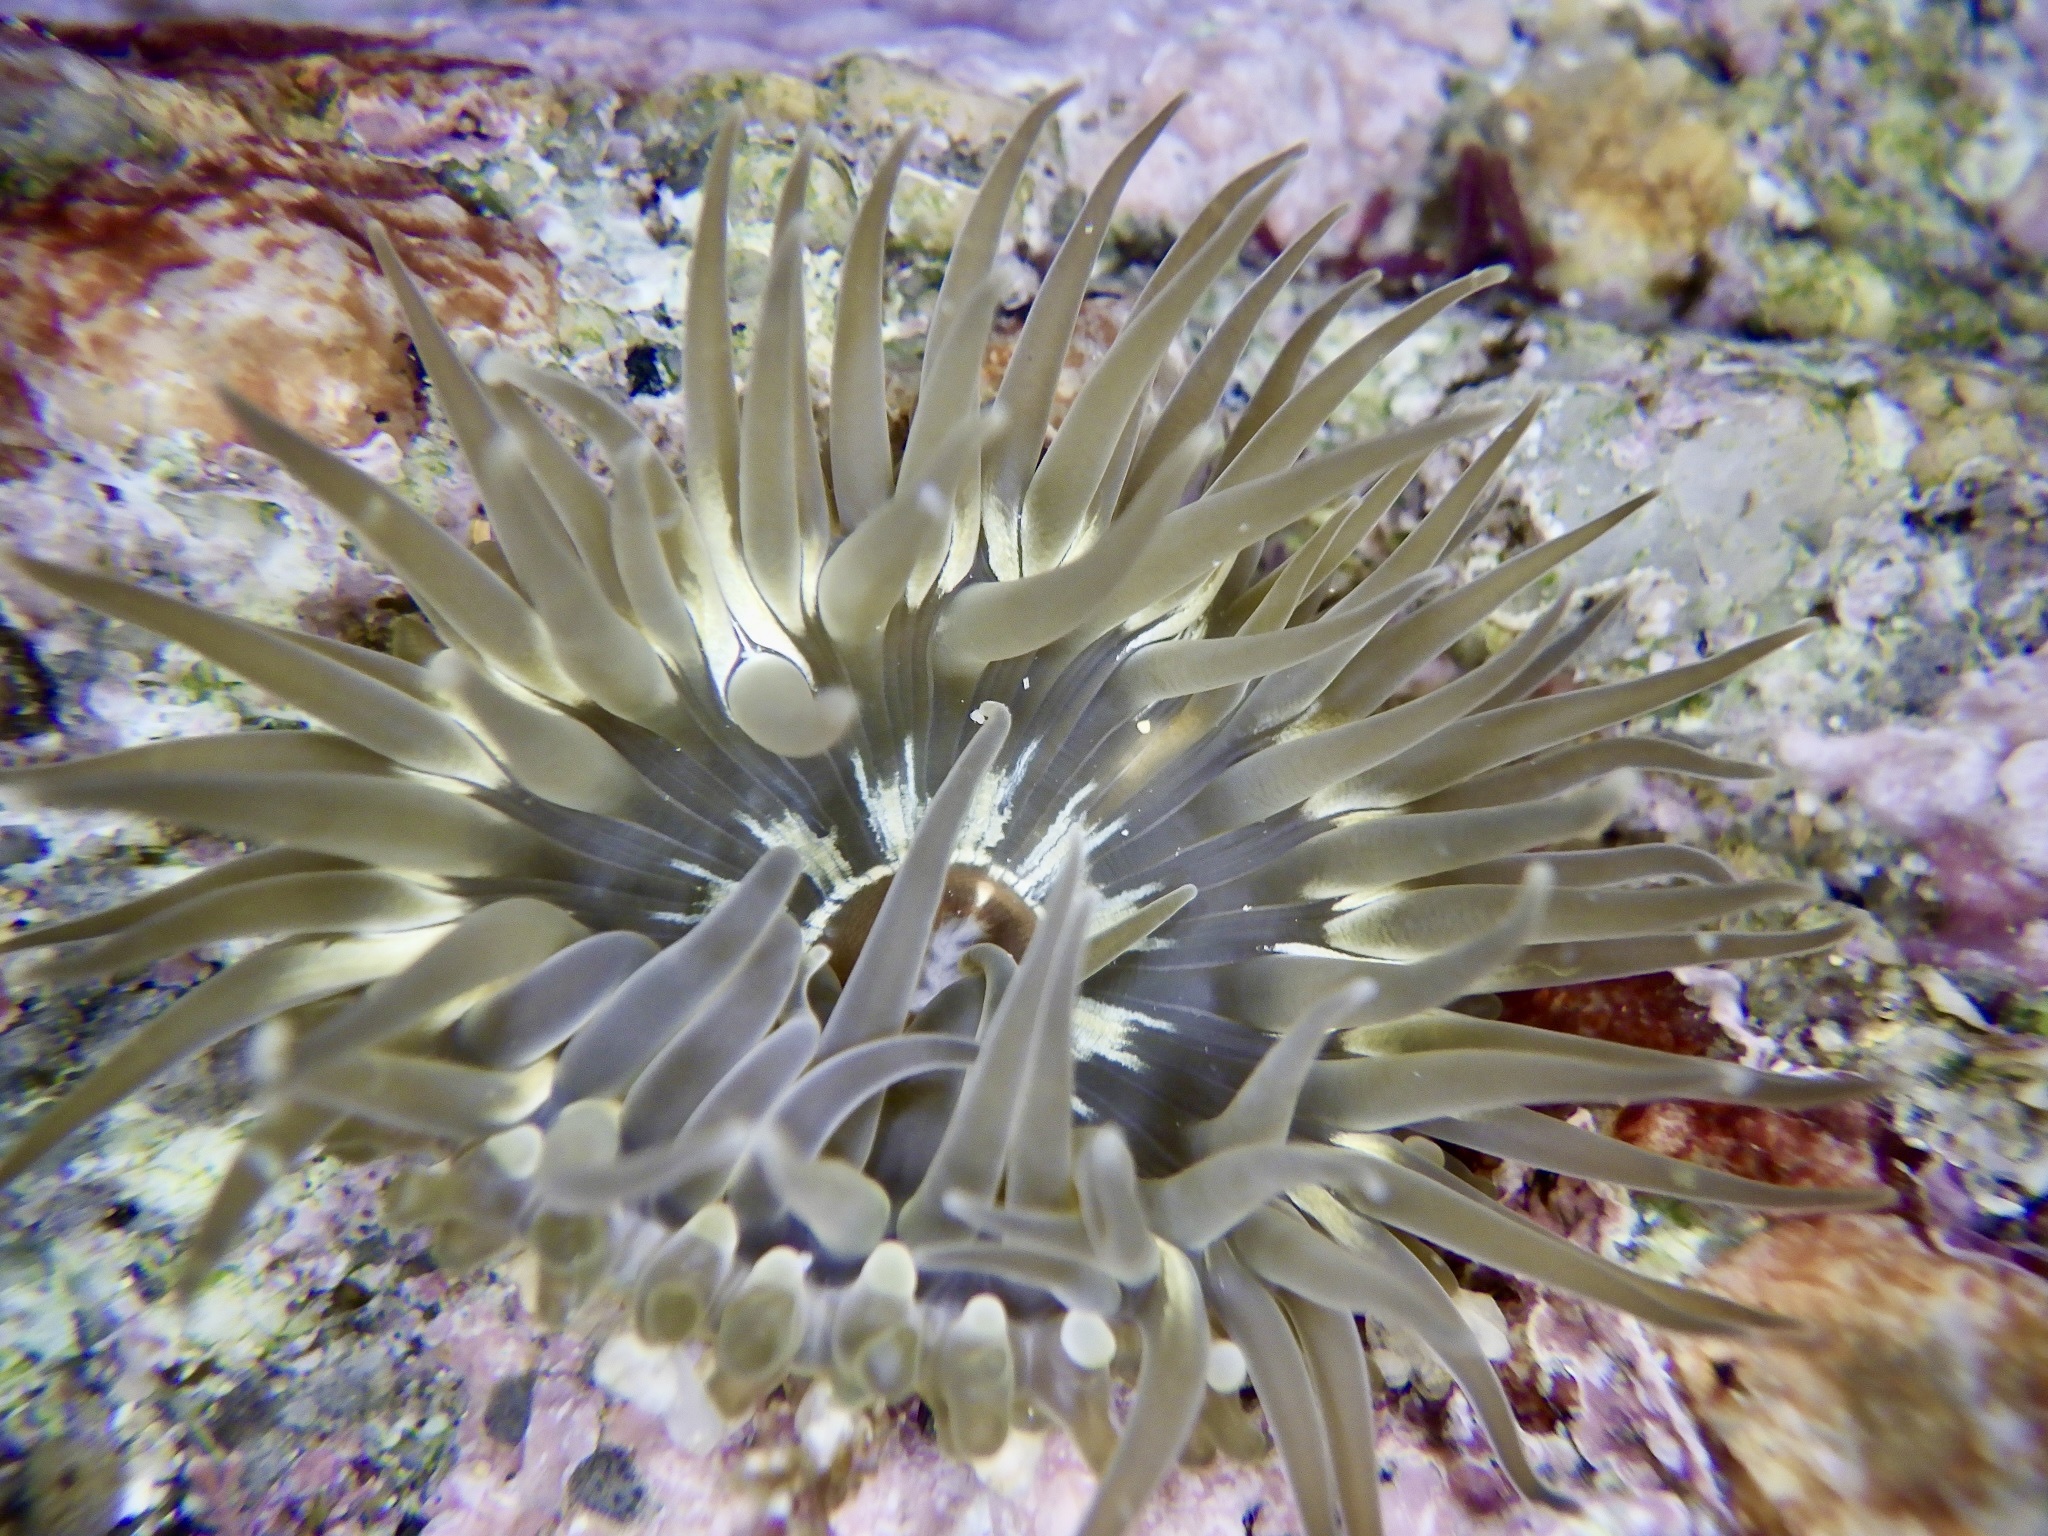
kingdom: Animalia
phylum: Cnidaria
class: Anthozoa
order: Actiniaria
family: Actiniidae
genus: Anthopleura
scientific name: Anthopleura inornata
